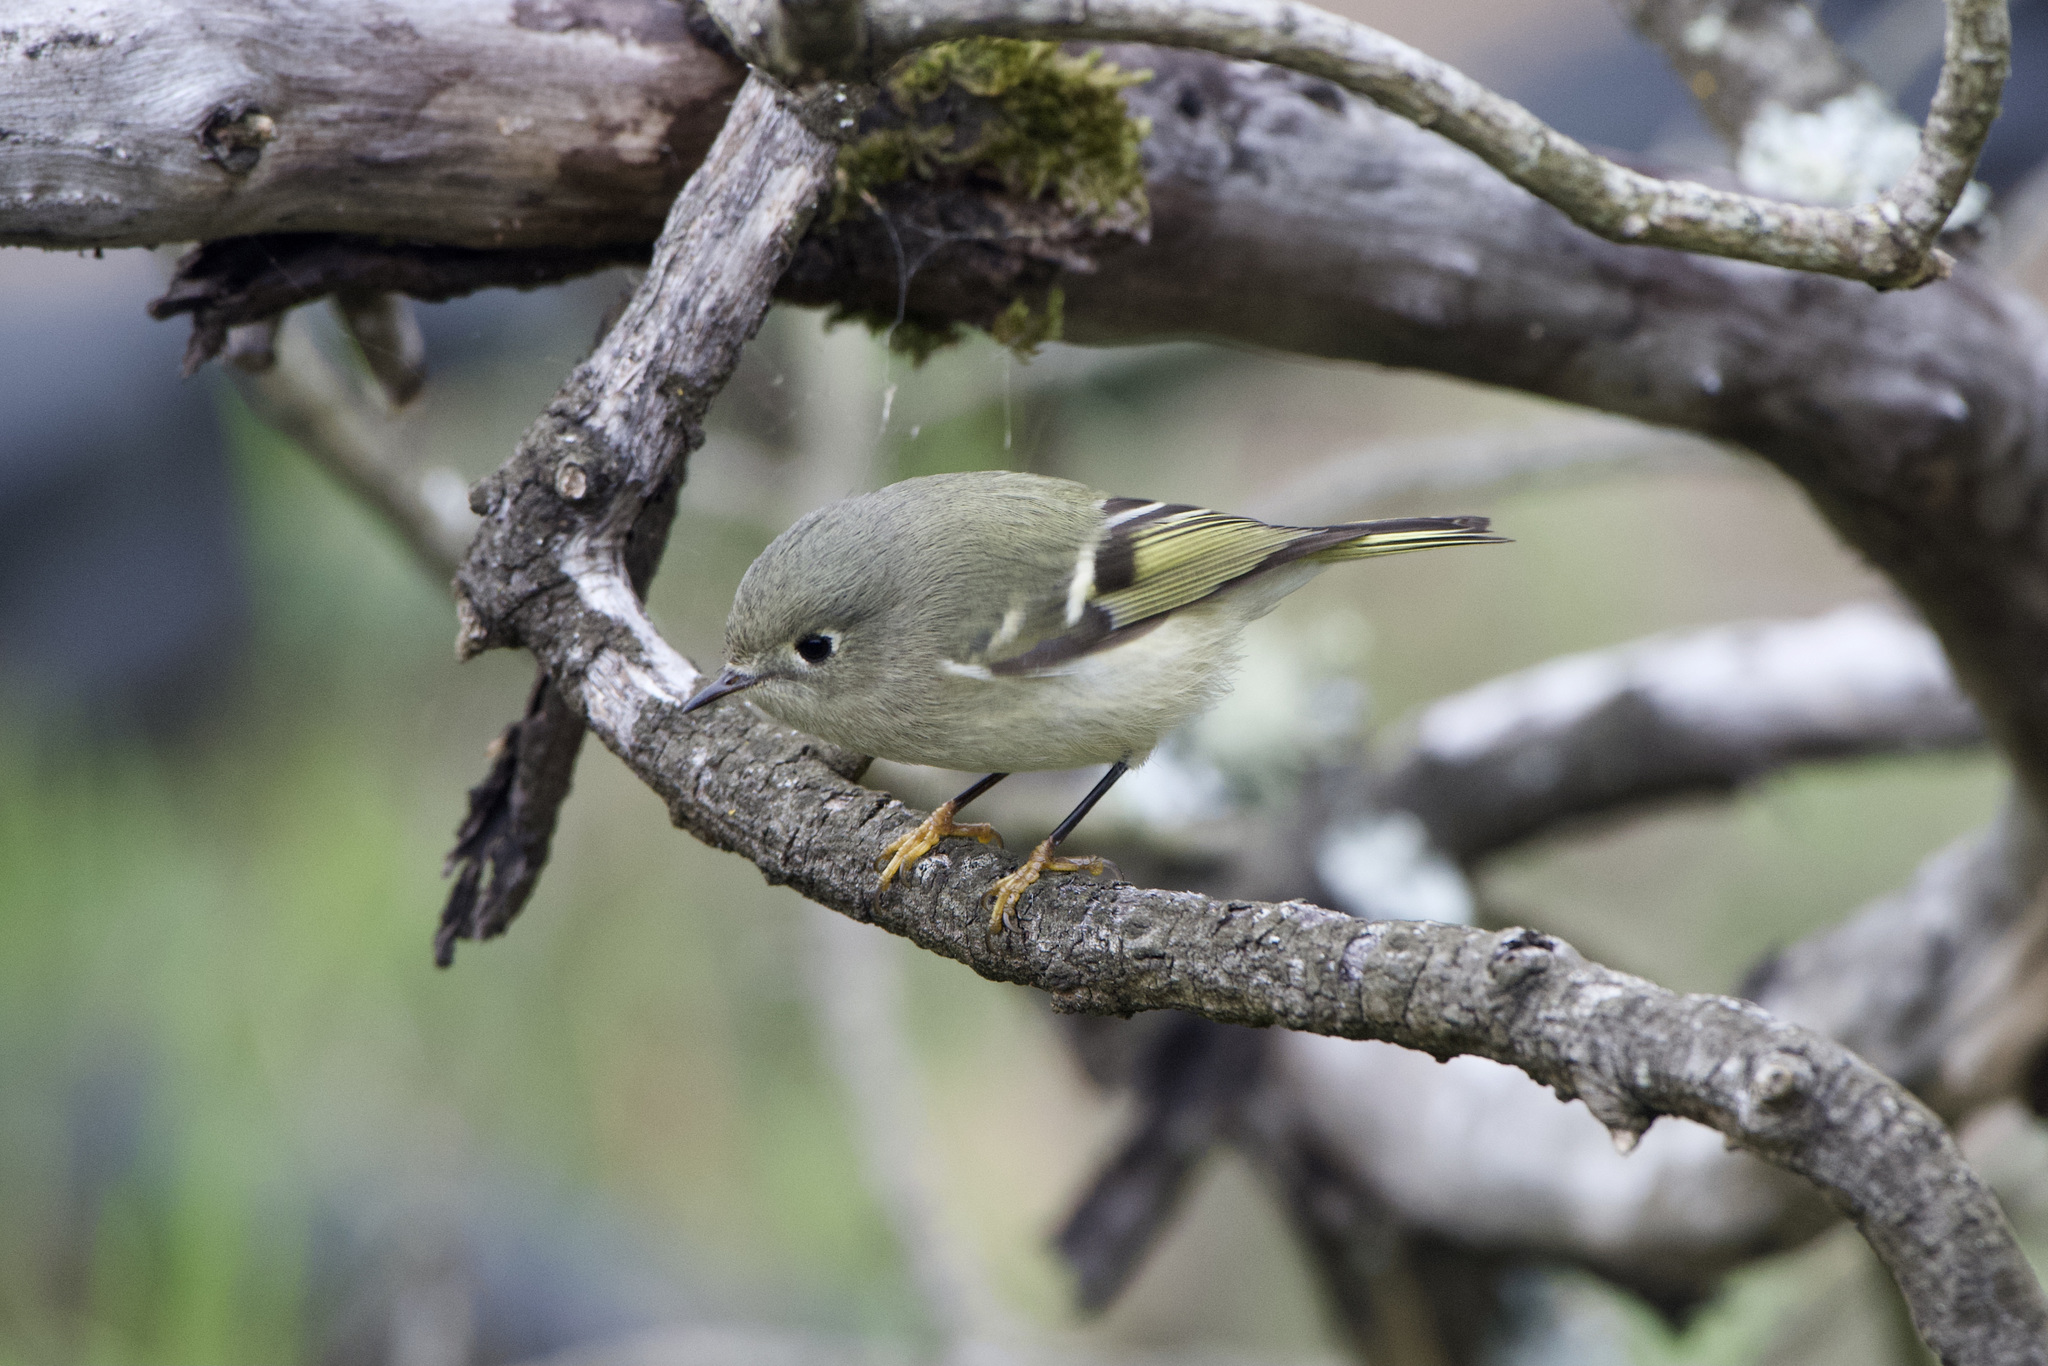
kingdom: Animalia
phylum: Chordata
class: Aves
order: Passeriformes
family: Regulidae
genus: Regulus
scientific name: Regulus calendula
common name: Ruby-crowned kinglet
